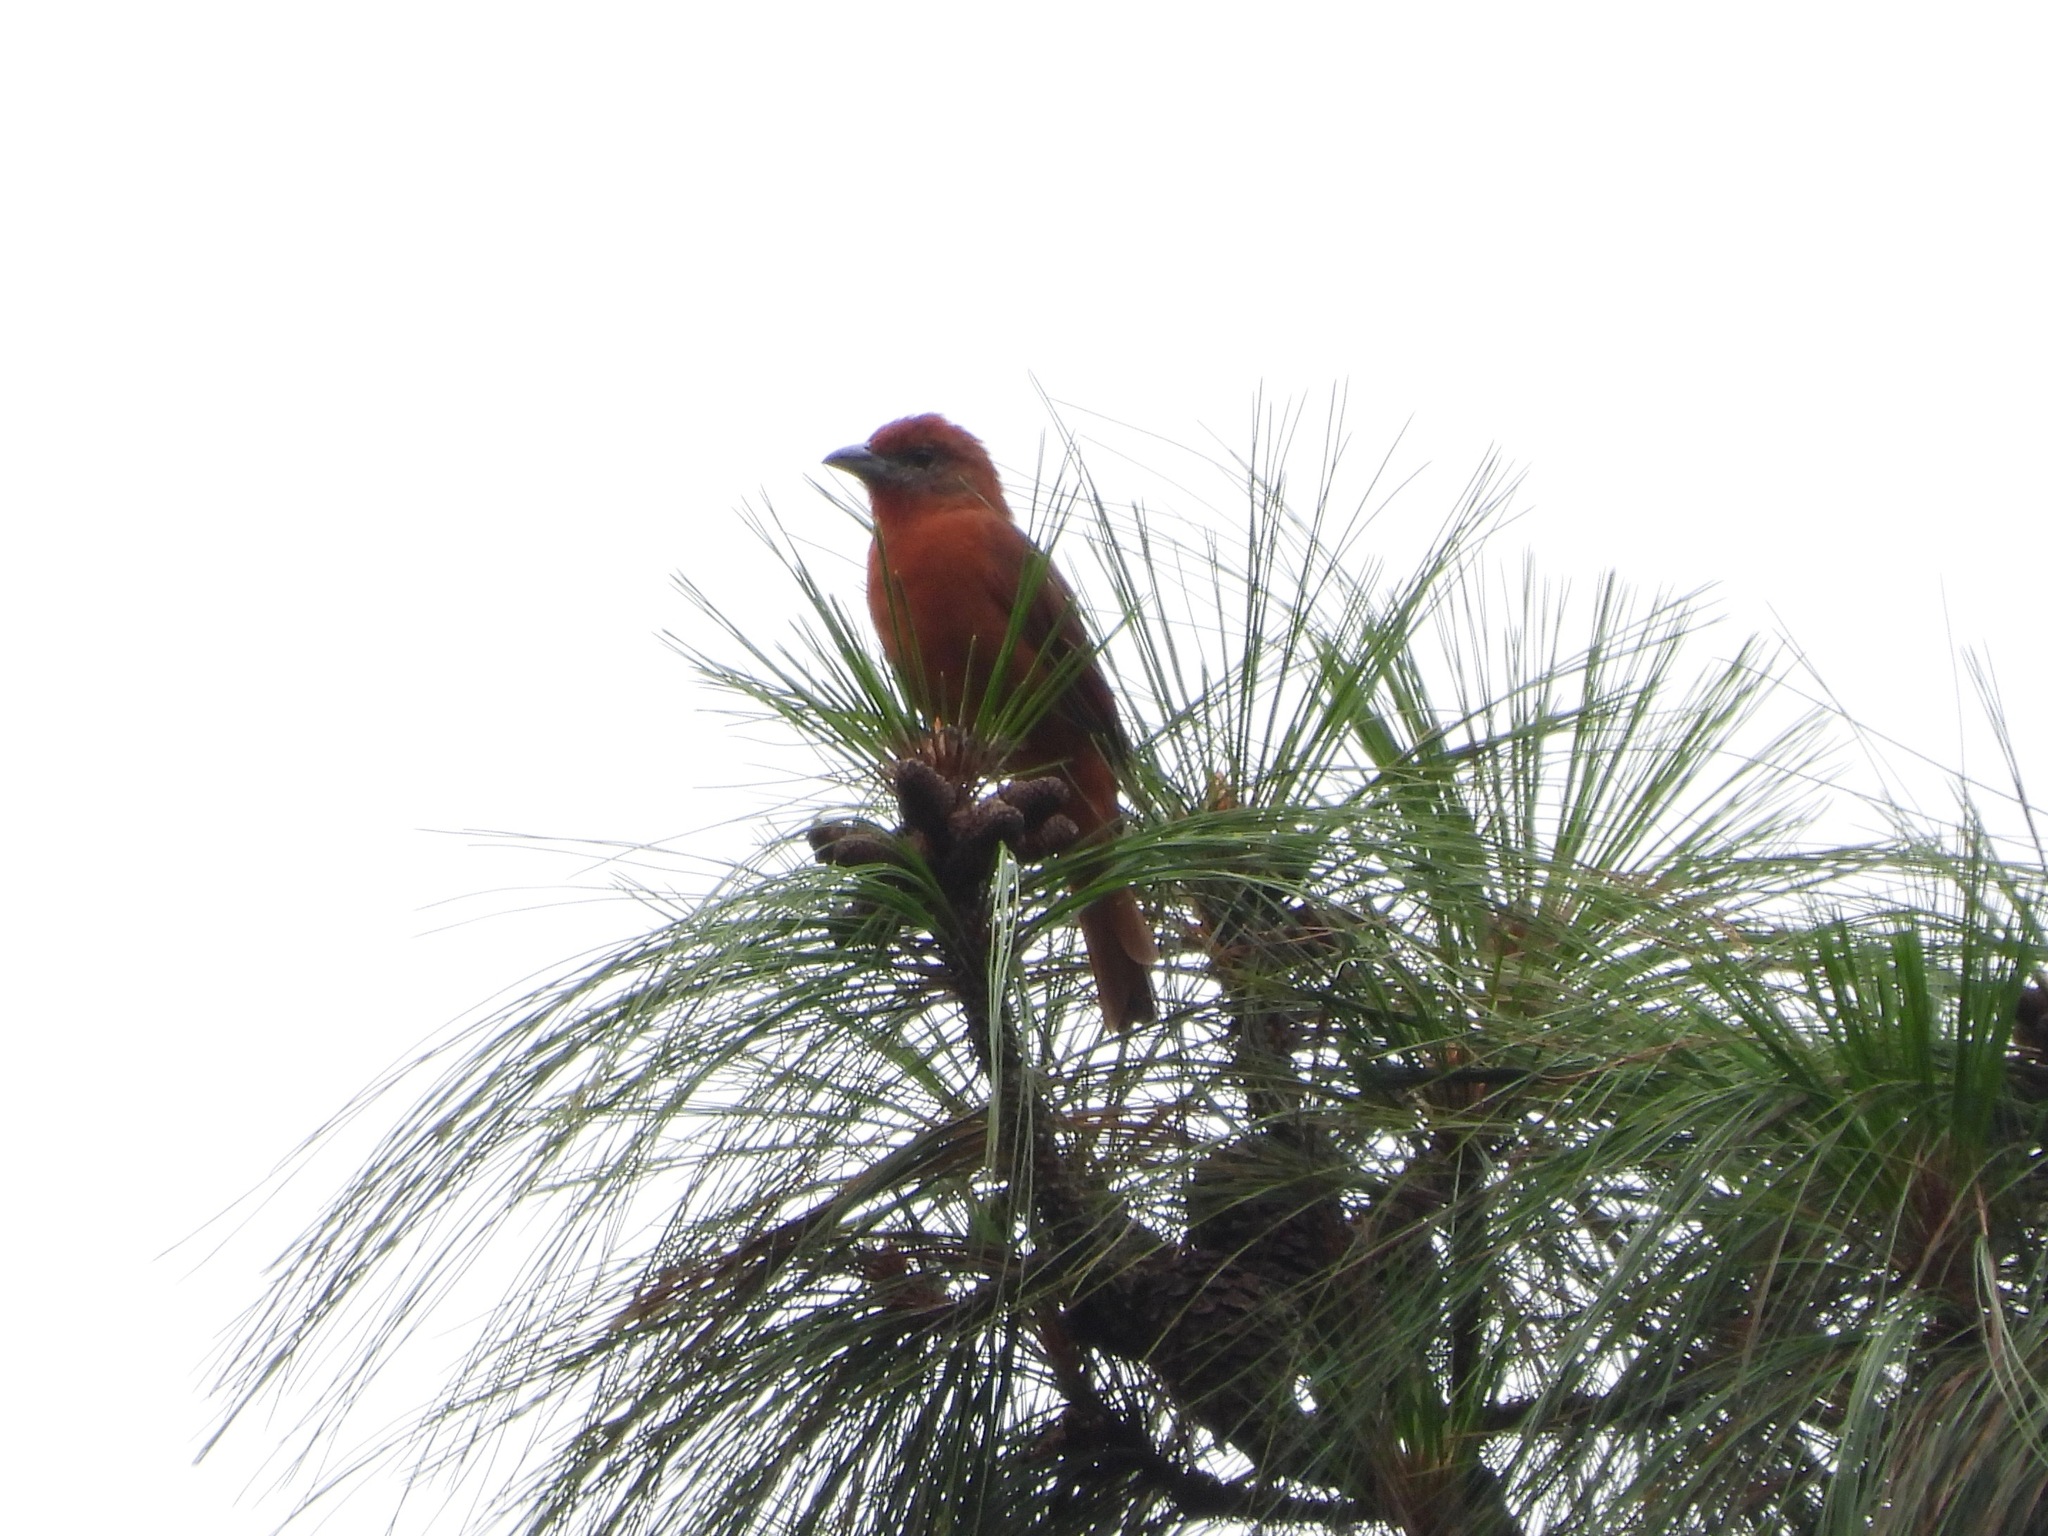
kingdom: Animalia
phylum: Chordata
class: Aves
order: Passeriformes
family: Cardinalidae
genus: Piranga
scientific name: Piranga flava
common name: Red tanager
